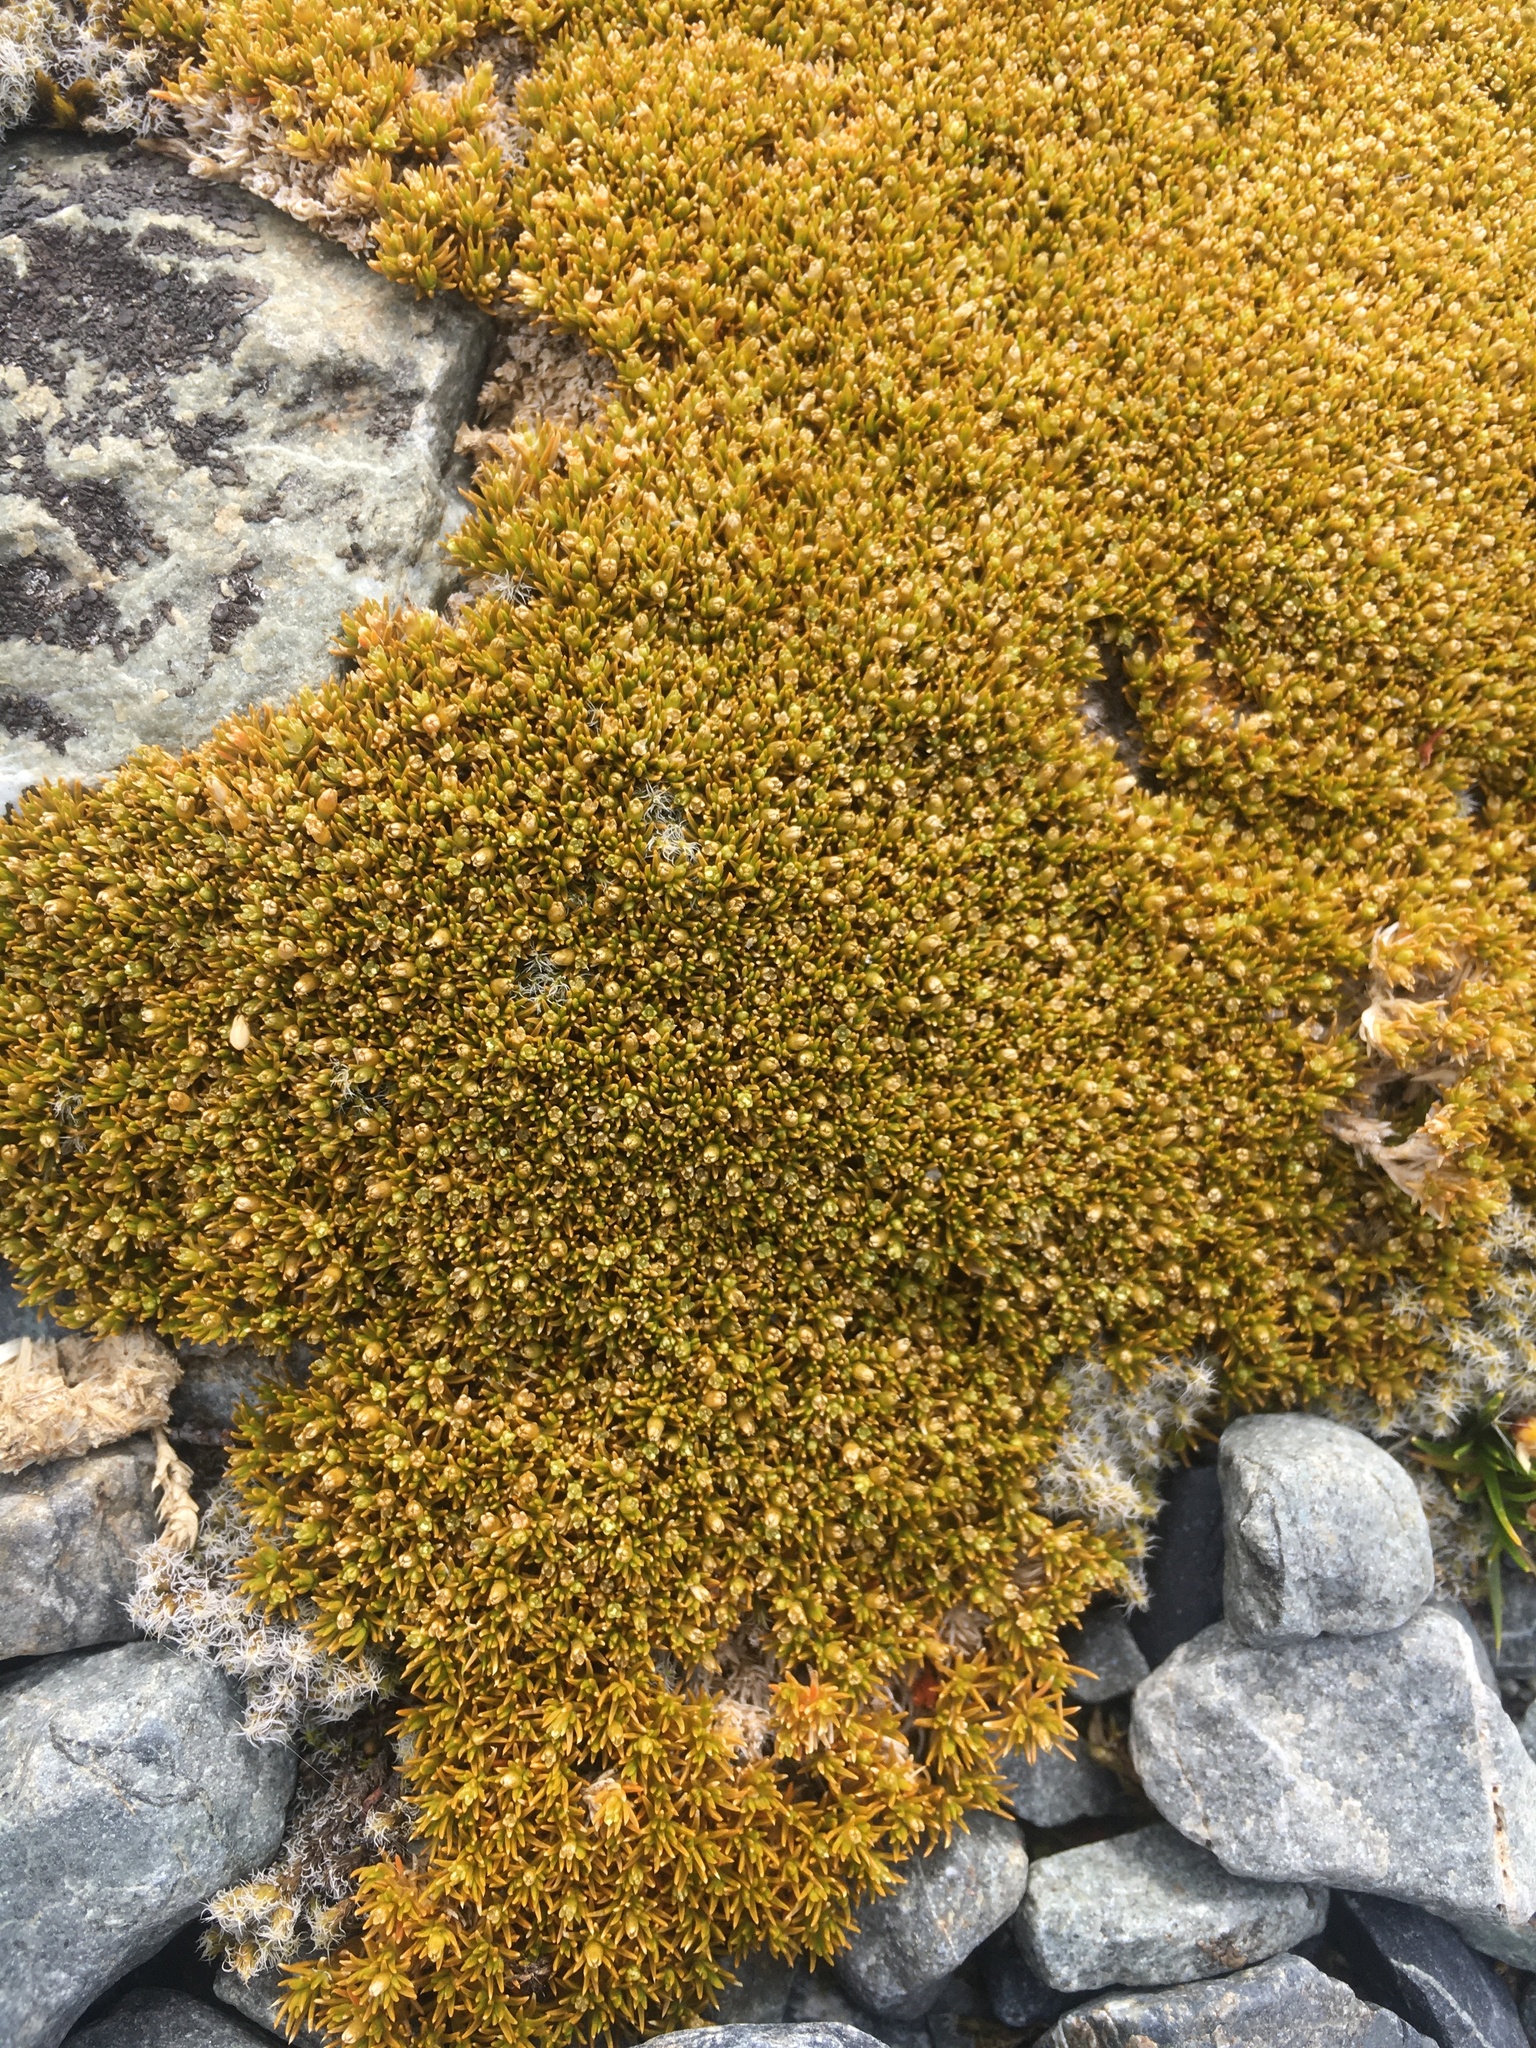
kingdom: Plantae
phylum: Tracheophyta
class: Magnoliopsida
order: Caryophyllales
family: Caryophyllaceae
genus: Scleranthus
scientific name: Scleranthus uniflorus
